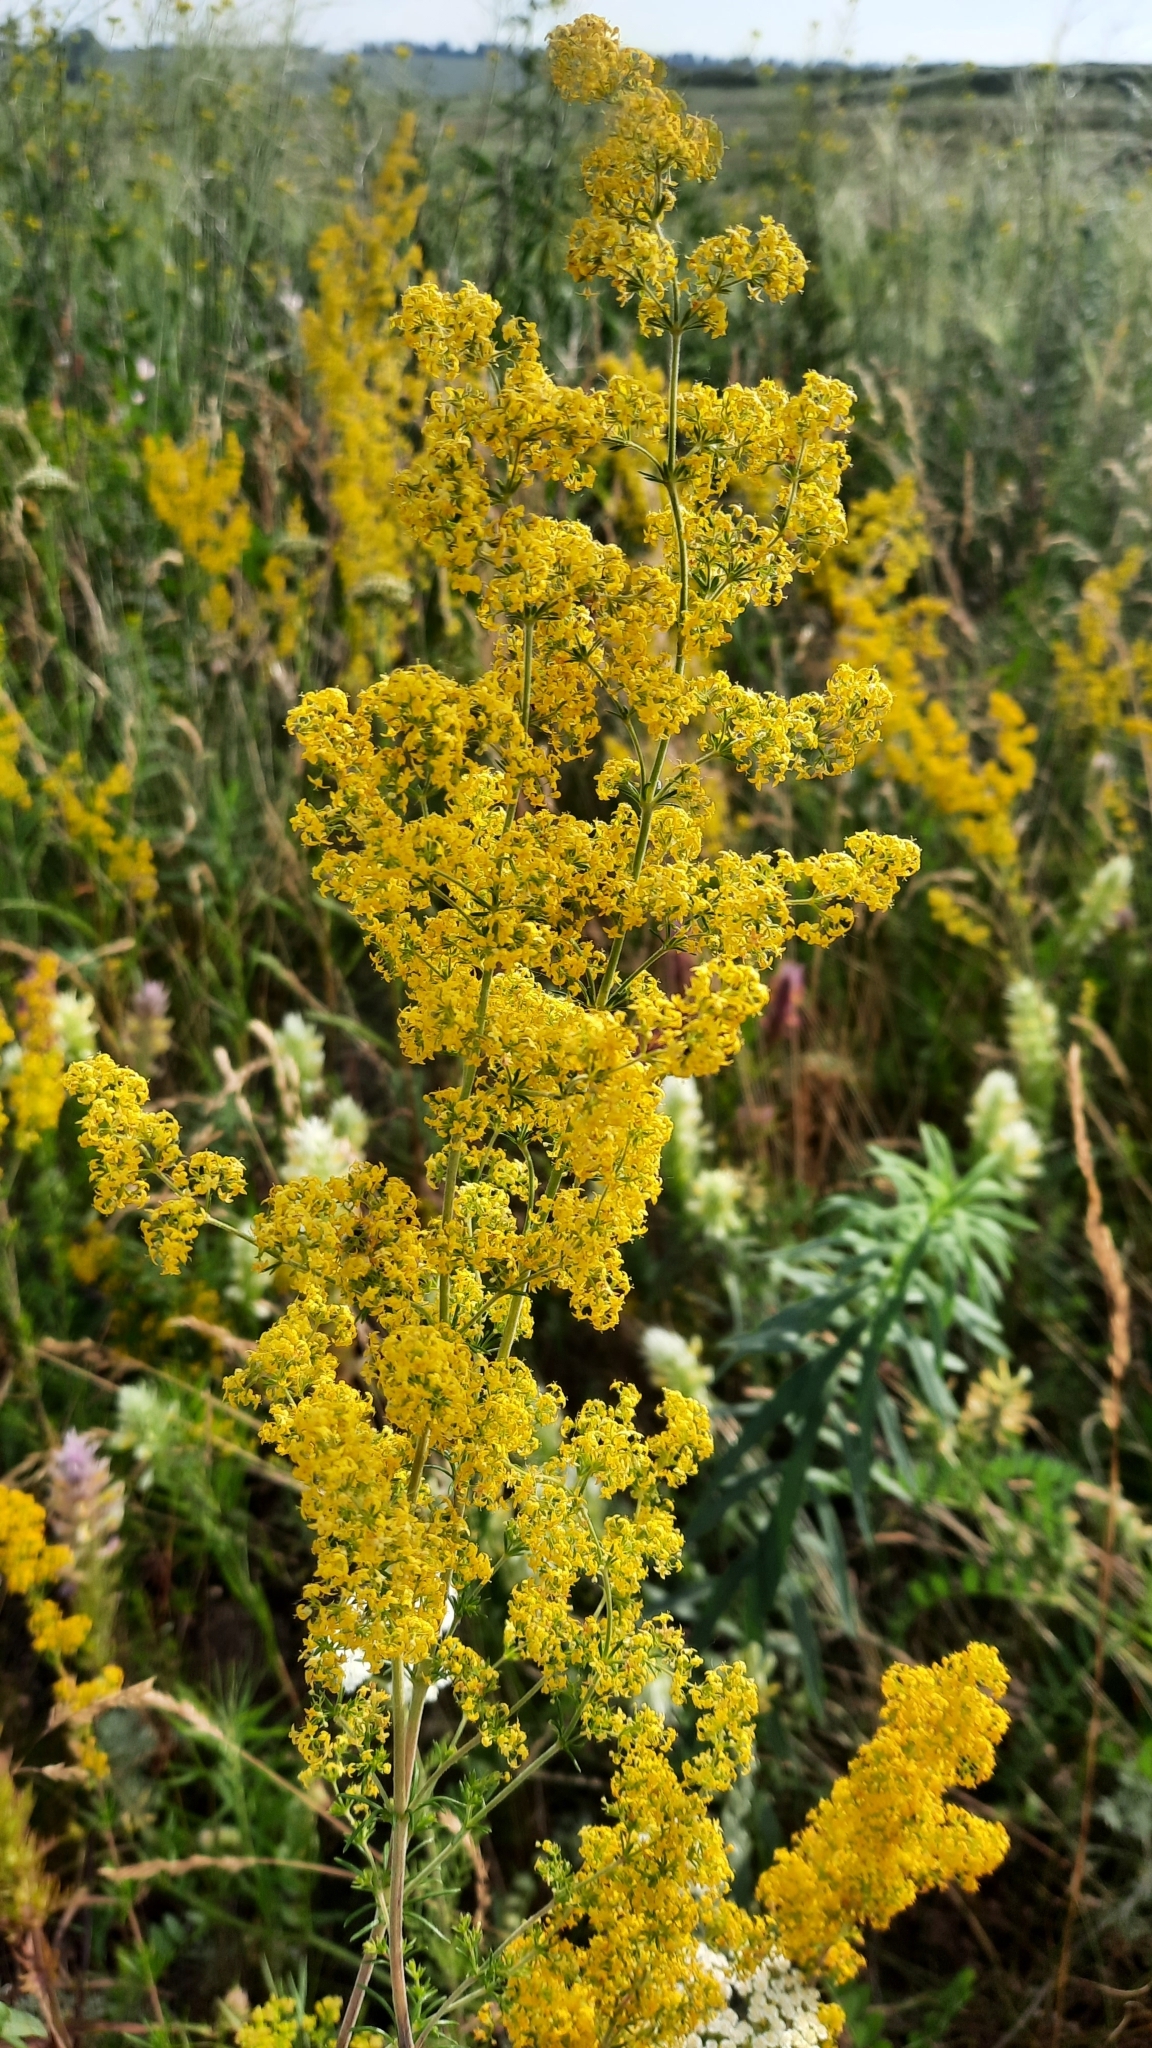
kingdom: Plantae
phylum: Tracheophyta
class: Magnoliopsida
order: Gentianales
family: Rubiaceae
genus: Galium
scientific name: Galium verum
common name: Lady's bedstraw
